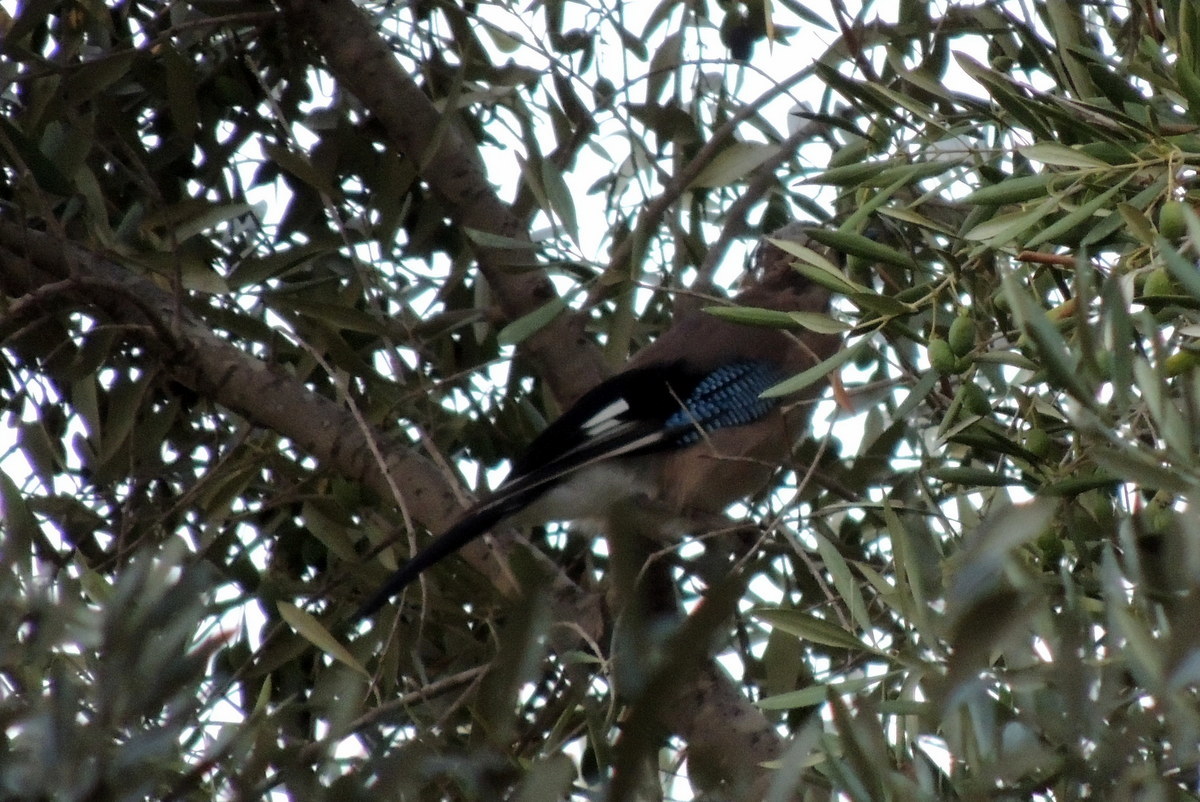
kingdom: Animalia
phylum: Chordata
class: Aves
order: Passeriformes
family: Corvidae
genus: Garrulus
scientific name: Garrulus glandarius
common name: Eurasian jay
